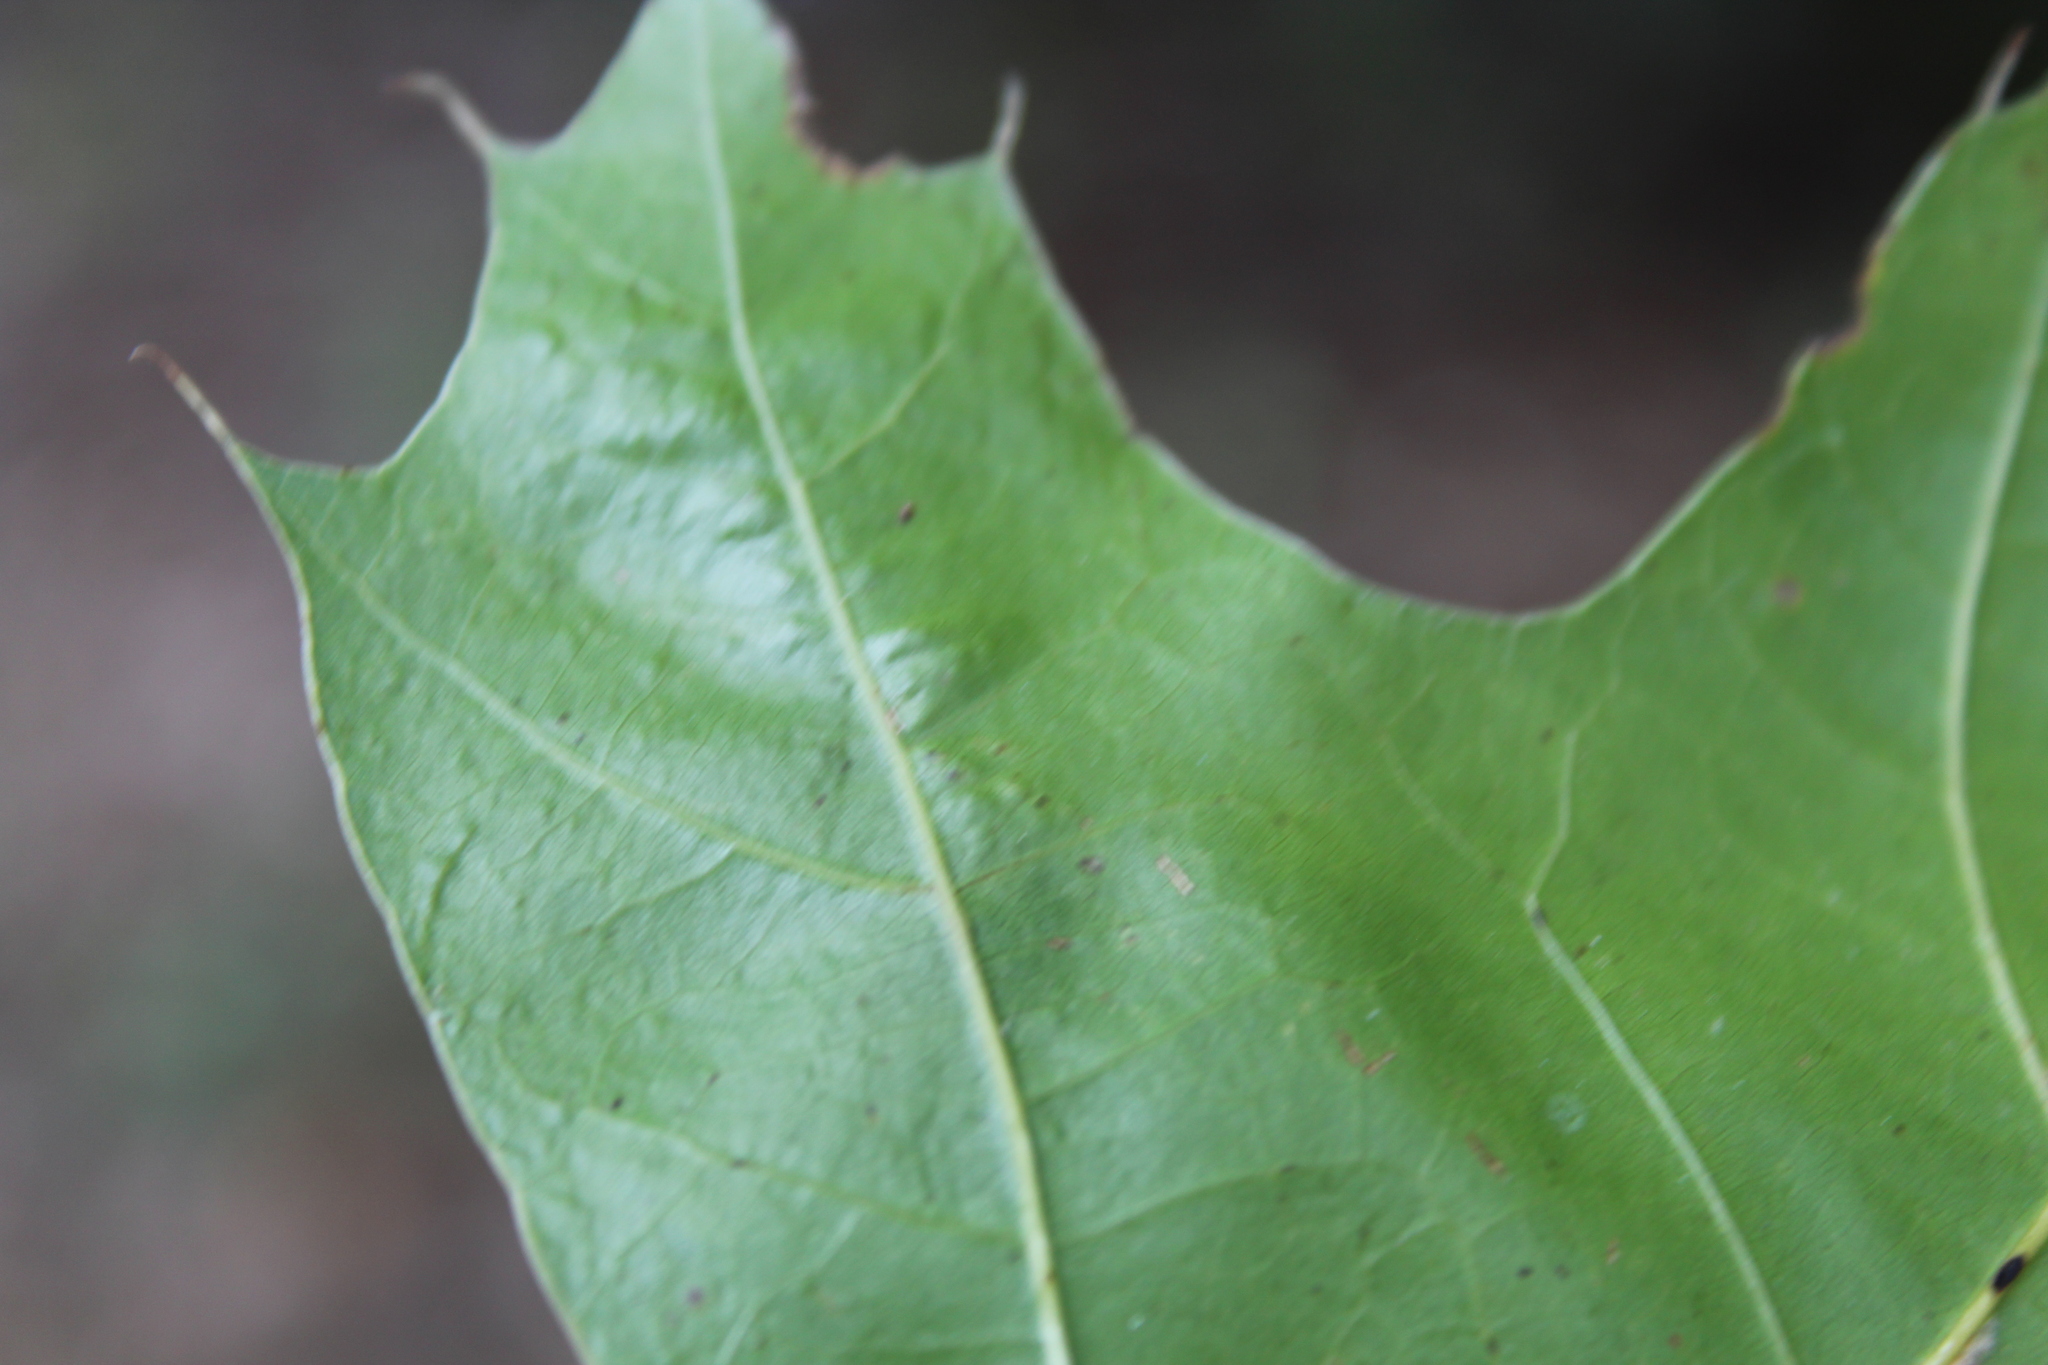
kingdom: Animalia
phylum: Arthropoda
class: Insecta
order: Hymenoptera
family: Cynipidae
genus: Callirhytis
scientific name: Callirhytis
